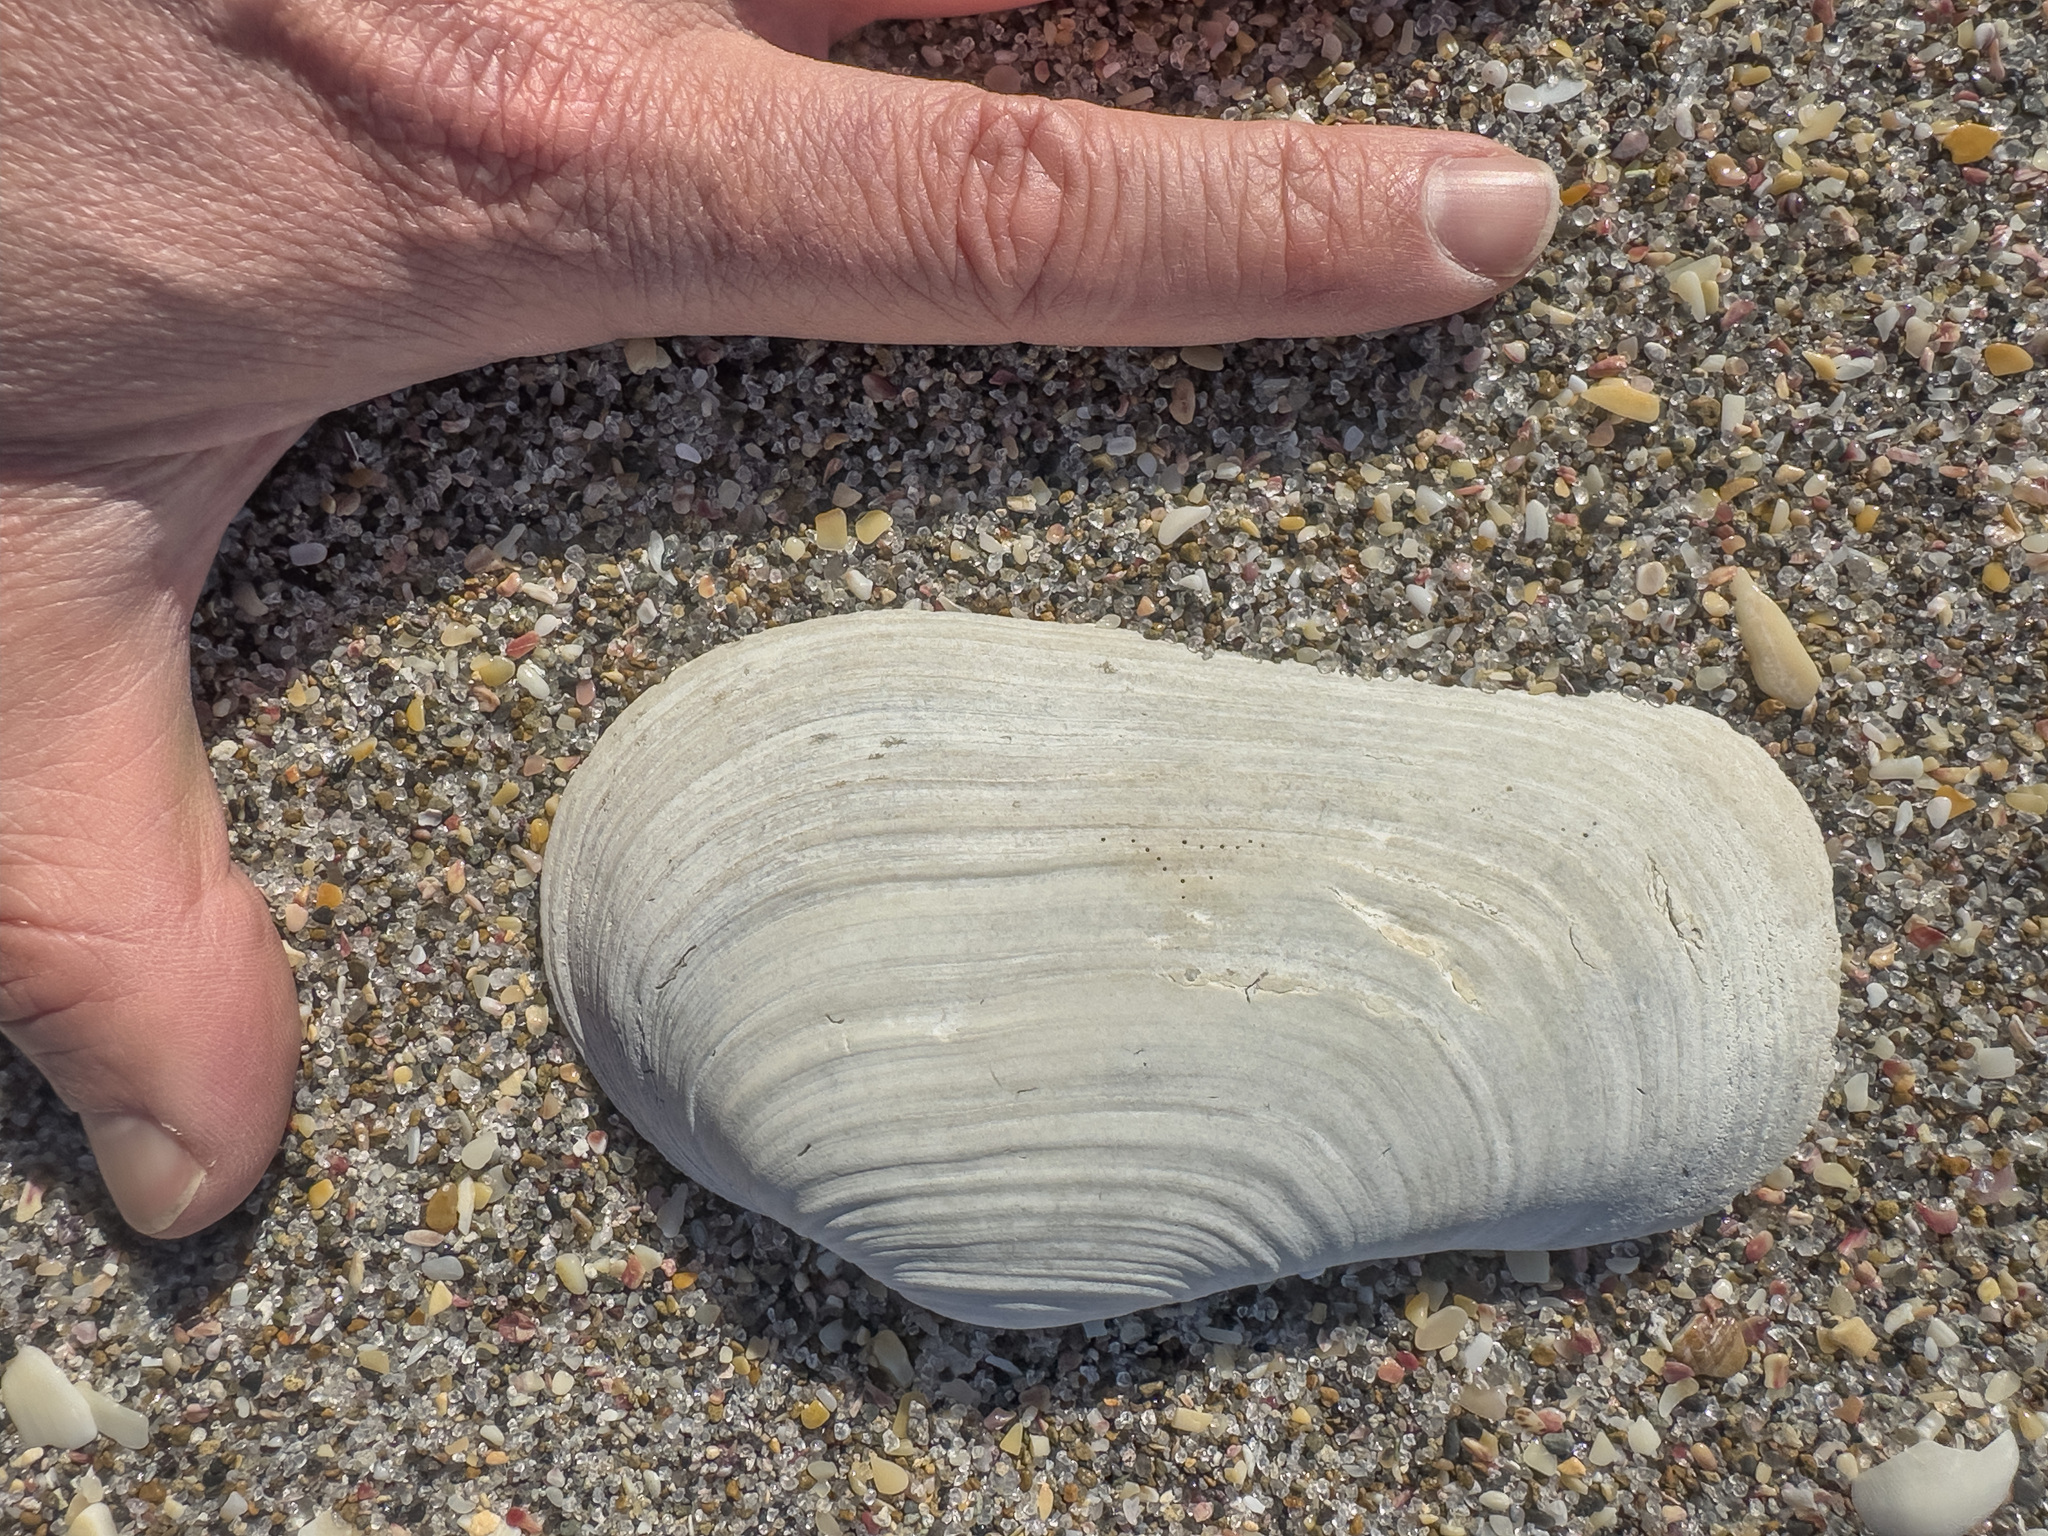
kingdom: Animalia
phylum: Mollusca
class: Bivalvia
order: Adapedonta
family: Hiatellidae
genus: Panopea
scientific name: Panopea zelandica
